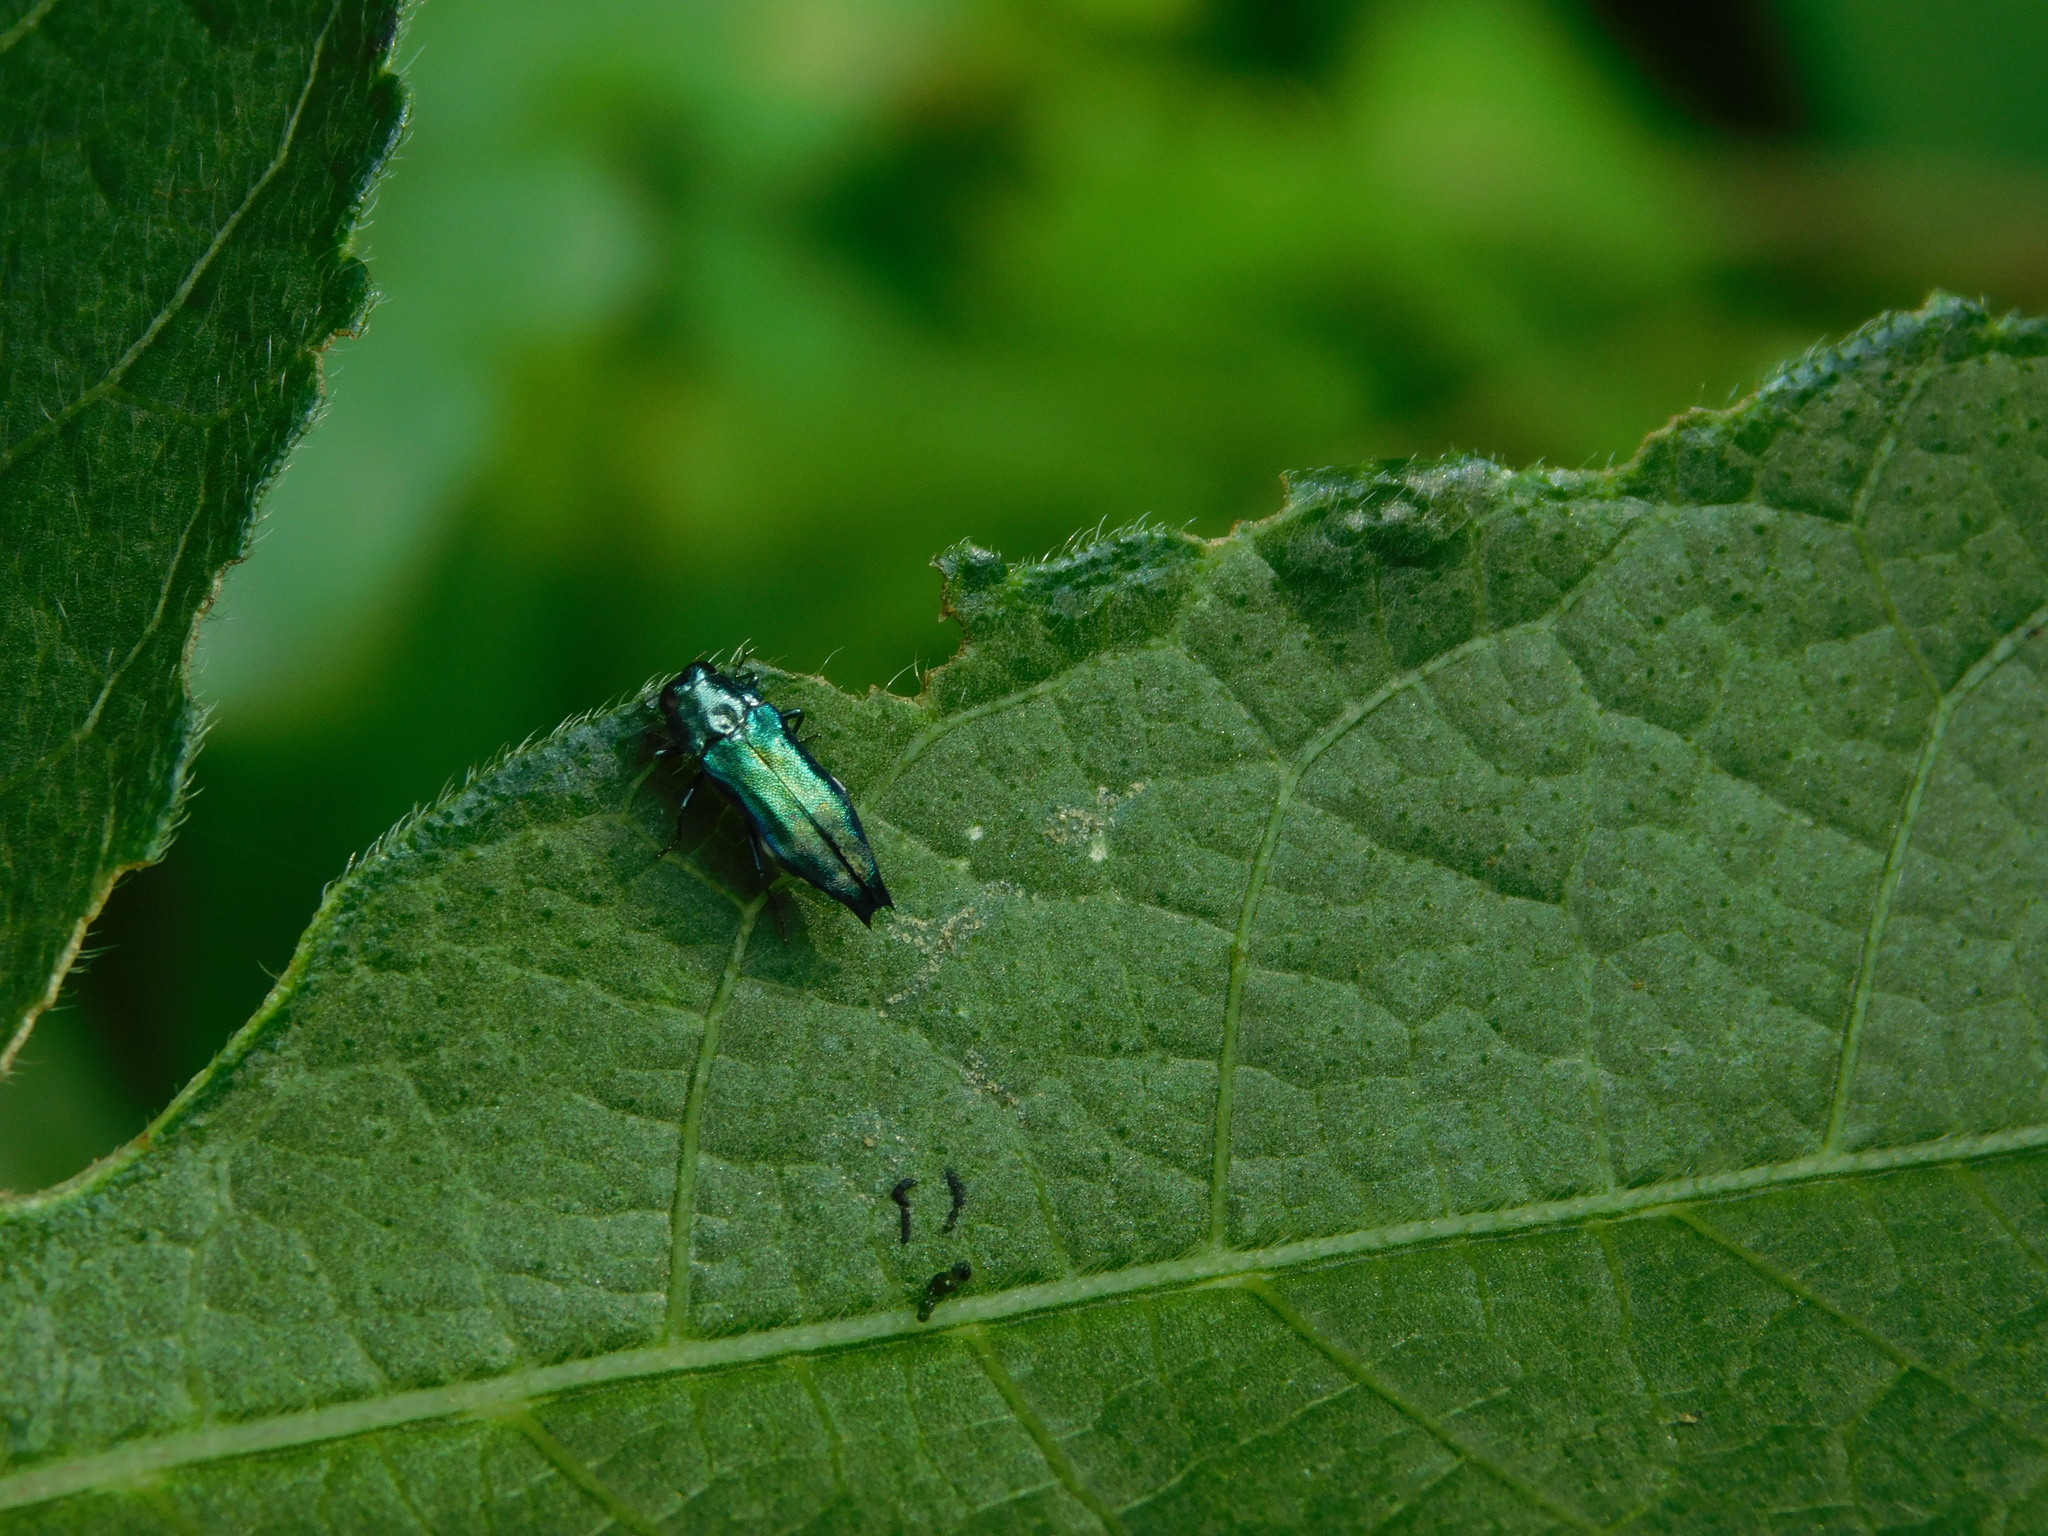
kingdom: Animalia
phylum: Arthropoda
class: Insecta
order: Coleoptera
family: Buprestidae
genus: Agrilus
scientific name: Agrilus acutus
